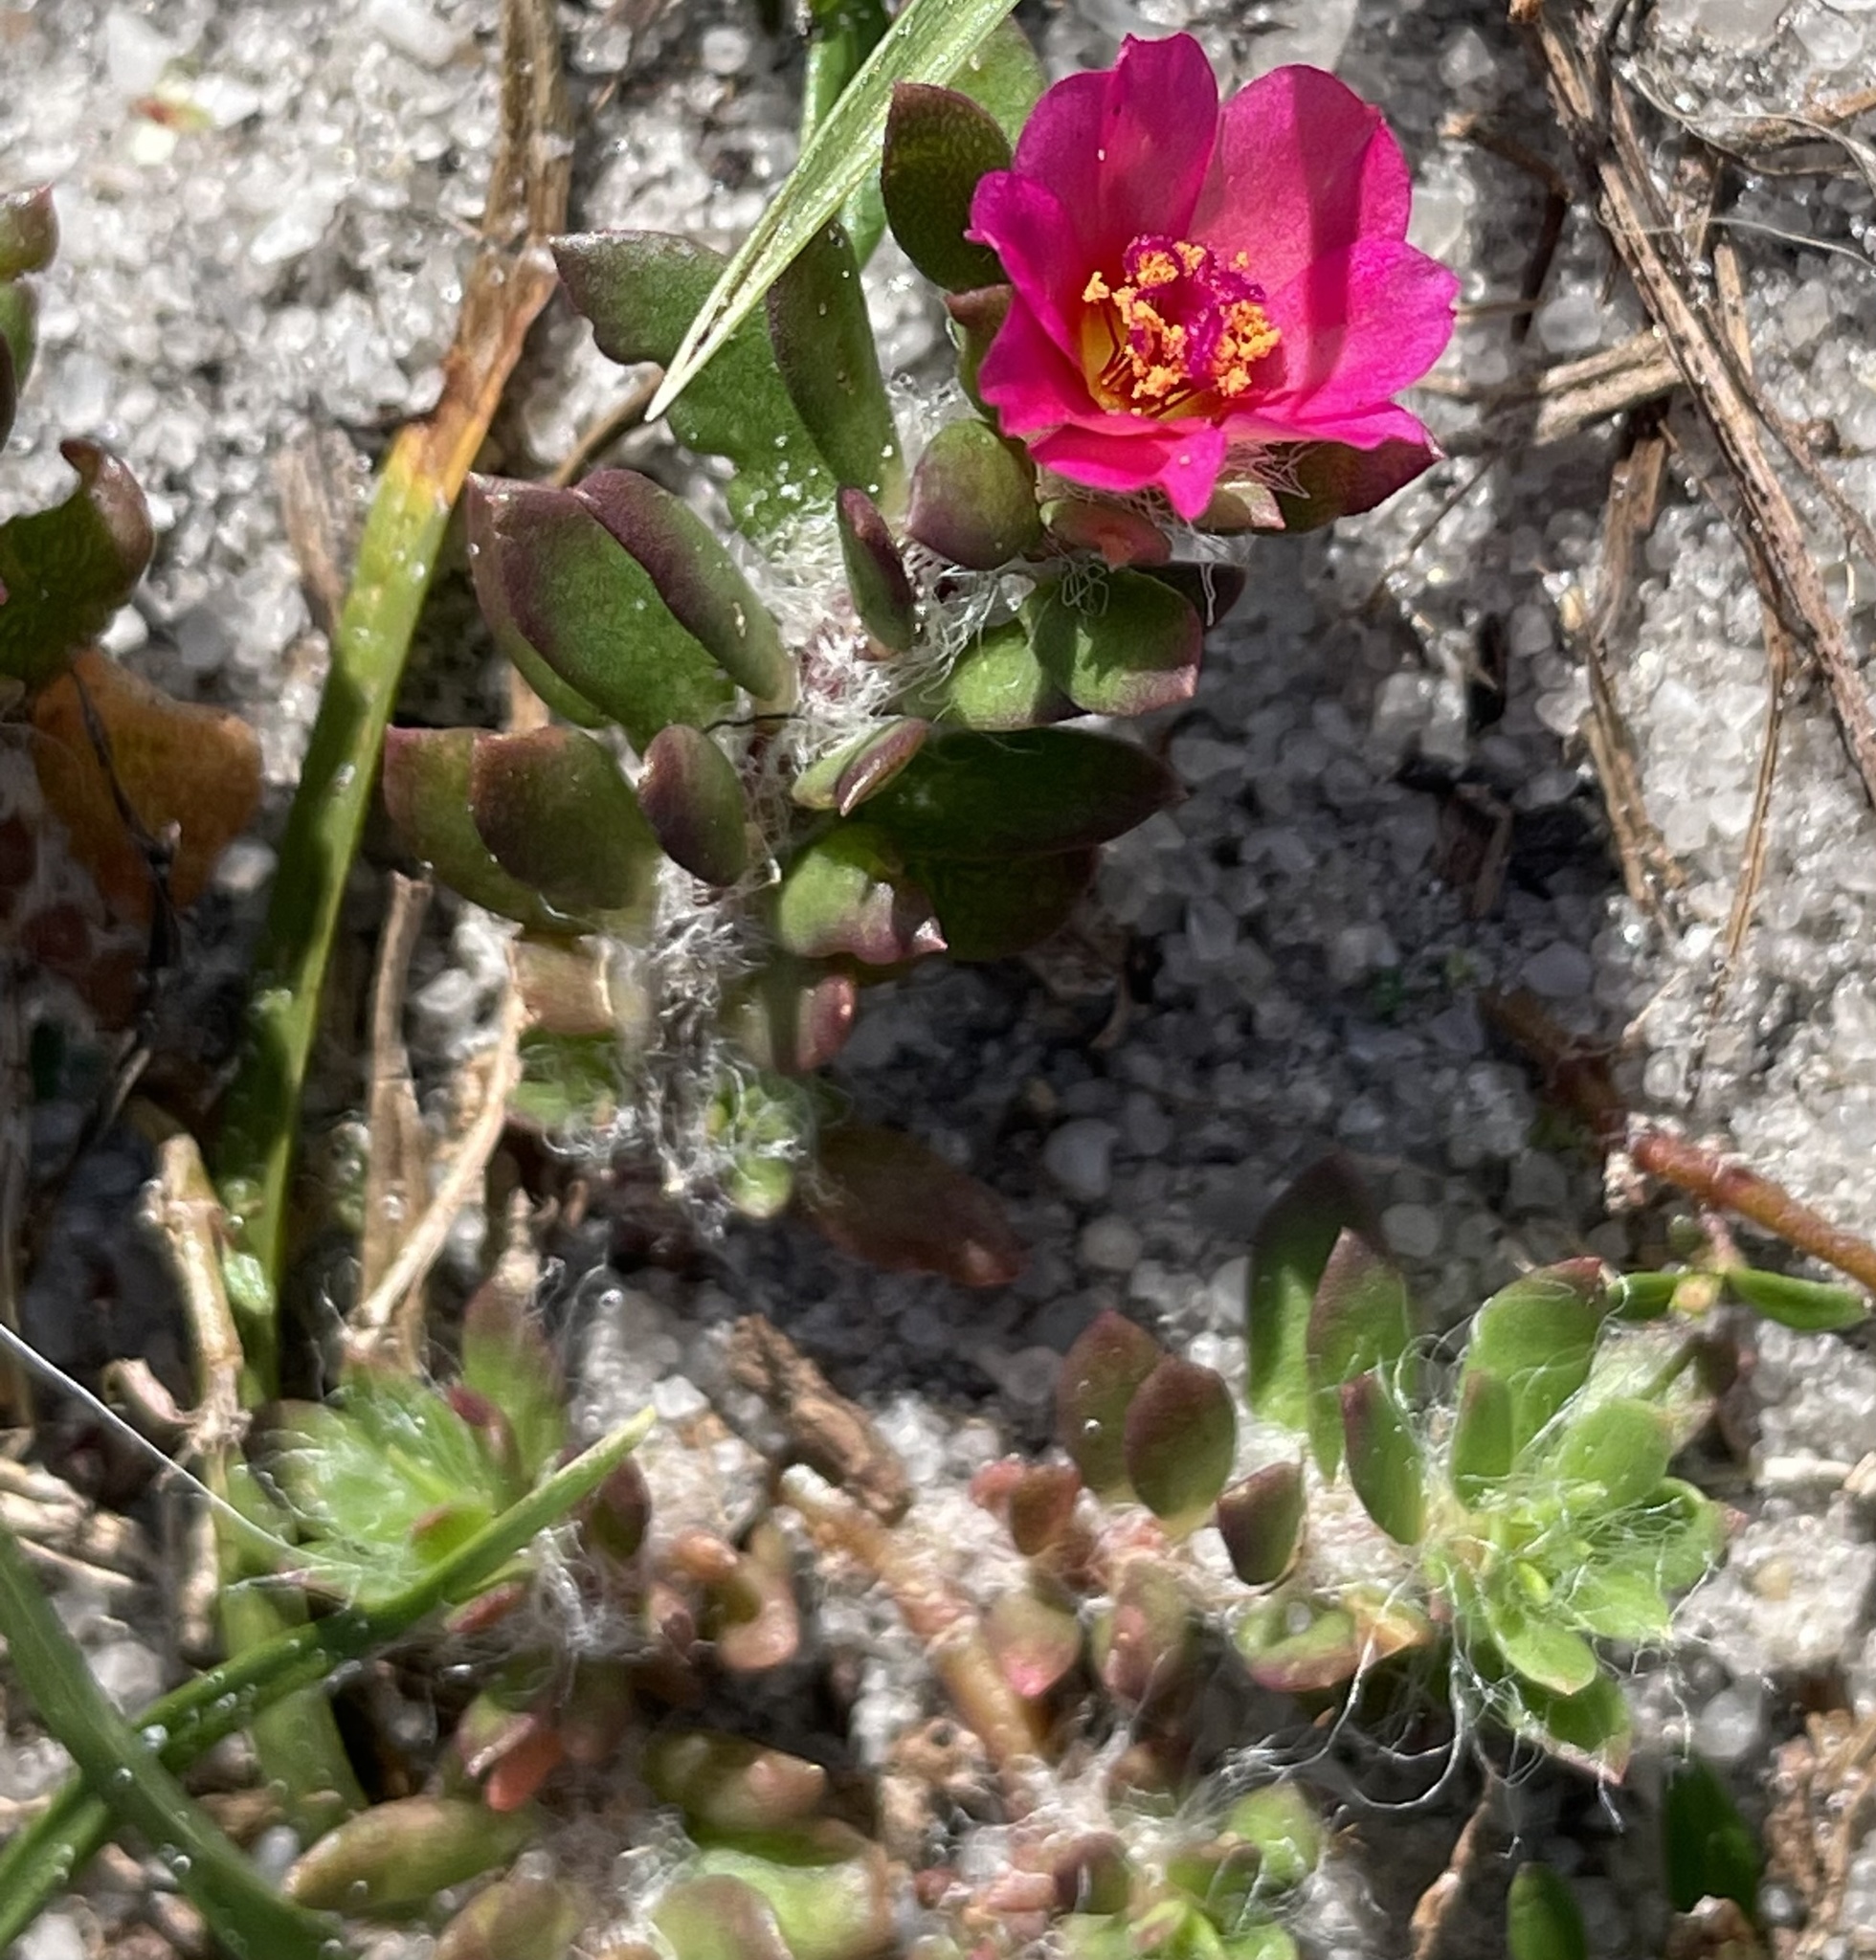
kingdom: Plantae
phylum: Tracheophyta
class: Magnoliopsida
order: Caryophyllales
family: Portulacaceae
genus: Portulaca
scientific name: Portulaca amilis
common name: Paraguayan purslane
